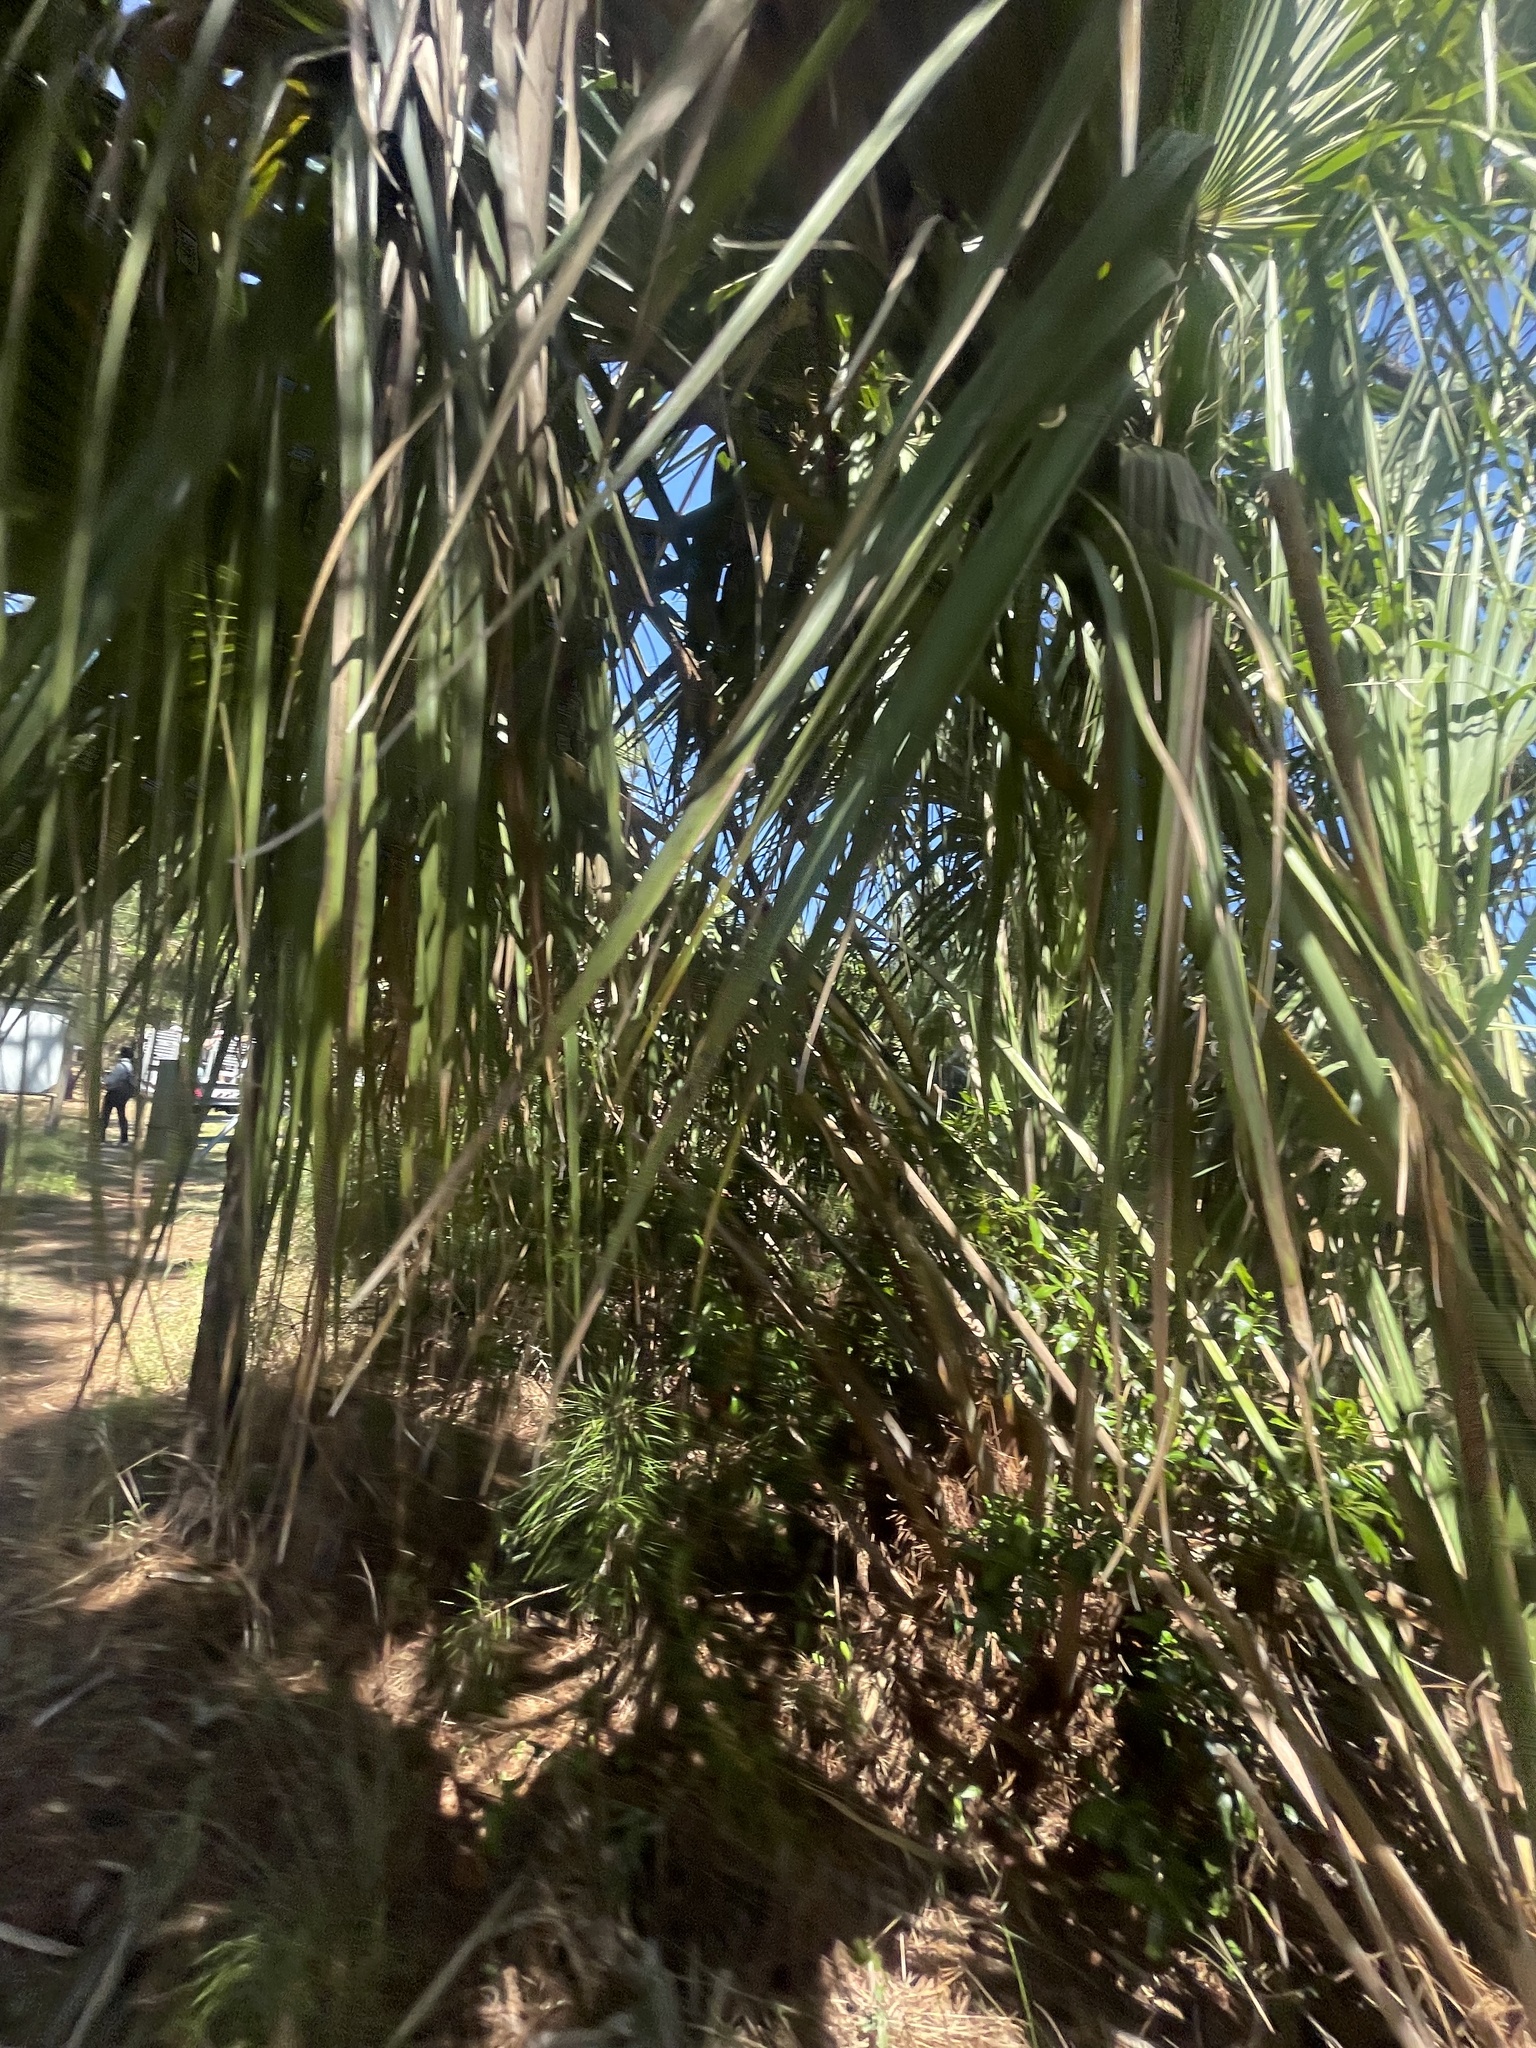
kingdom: Plantae
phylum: Tracheophyta
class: Liliopsida
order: Arecales
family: Arecaceae
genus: Sabal
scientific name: Sabal palmetto
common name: Blue palmetto
